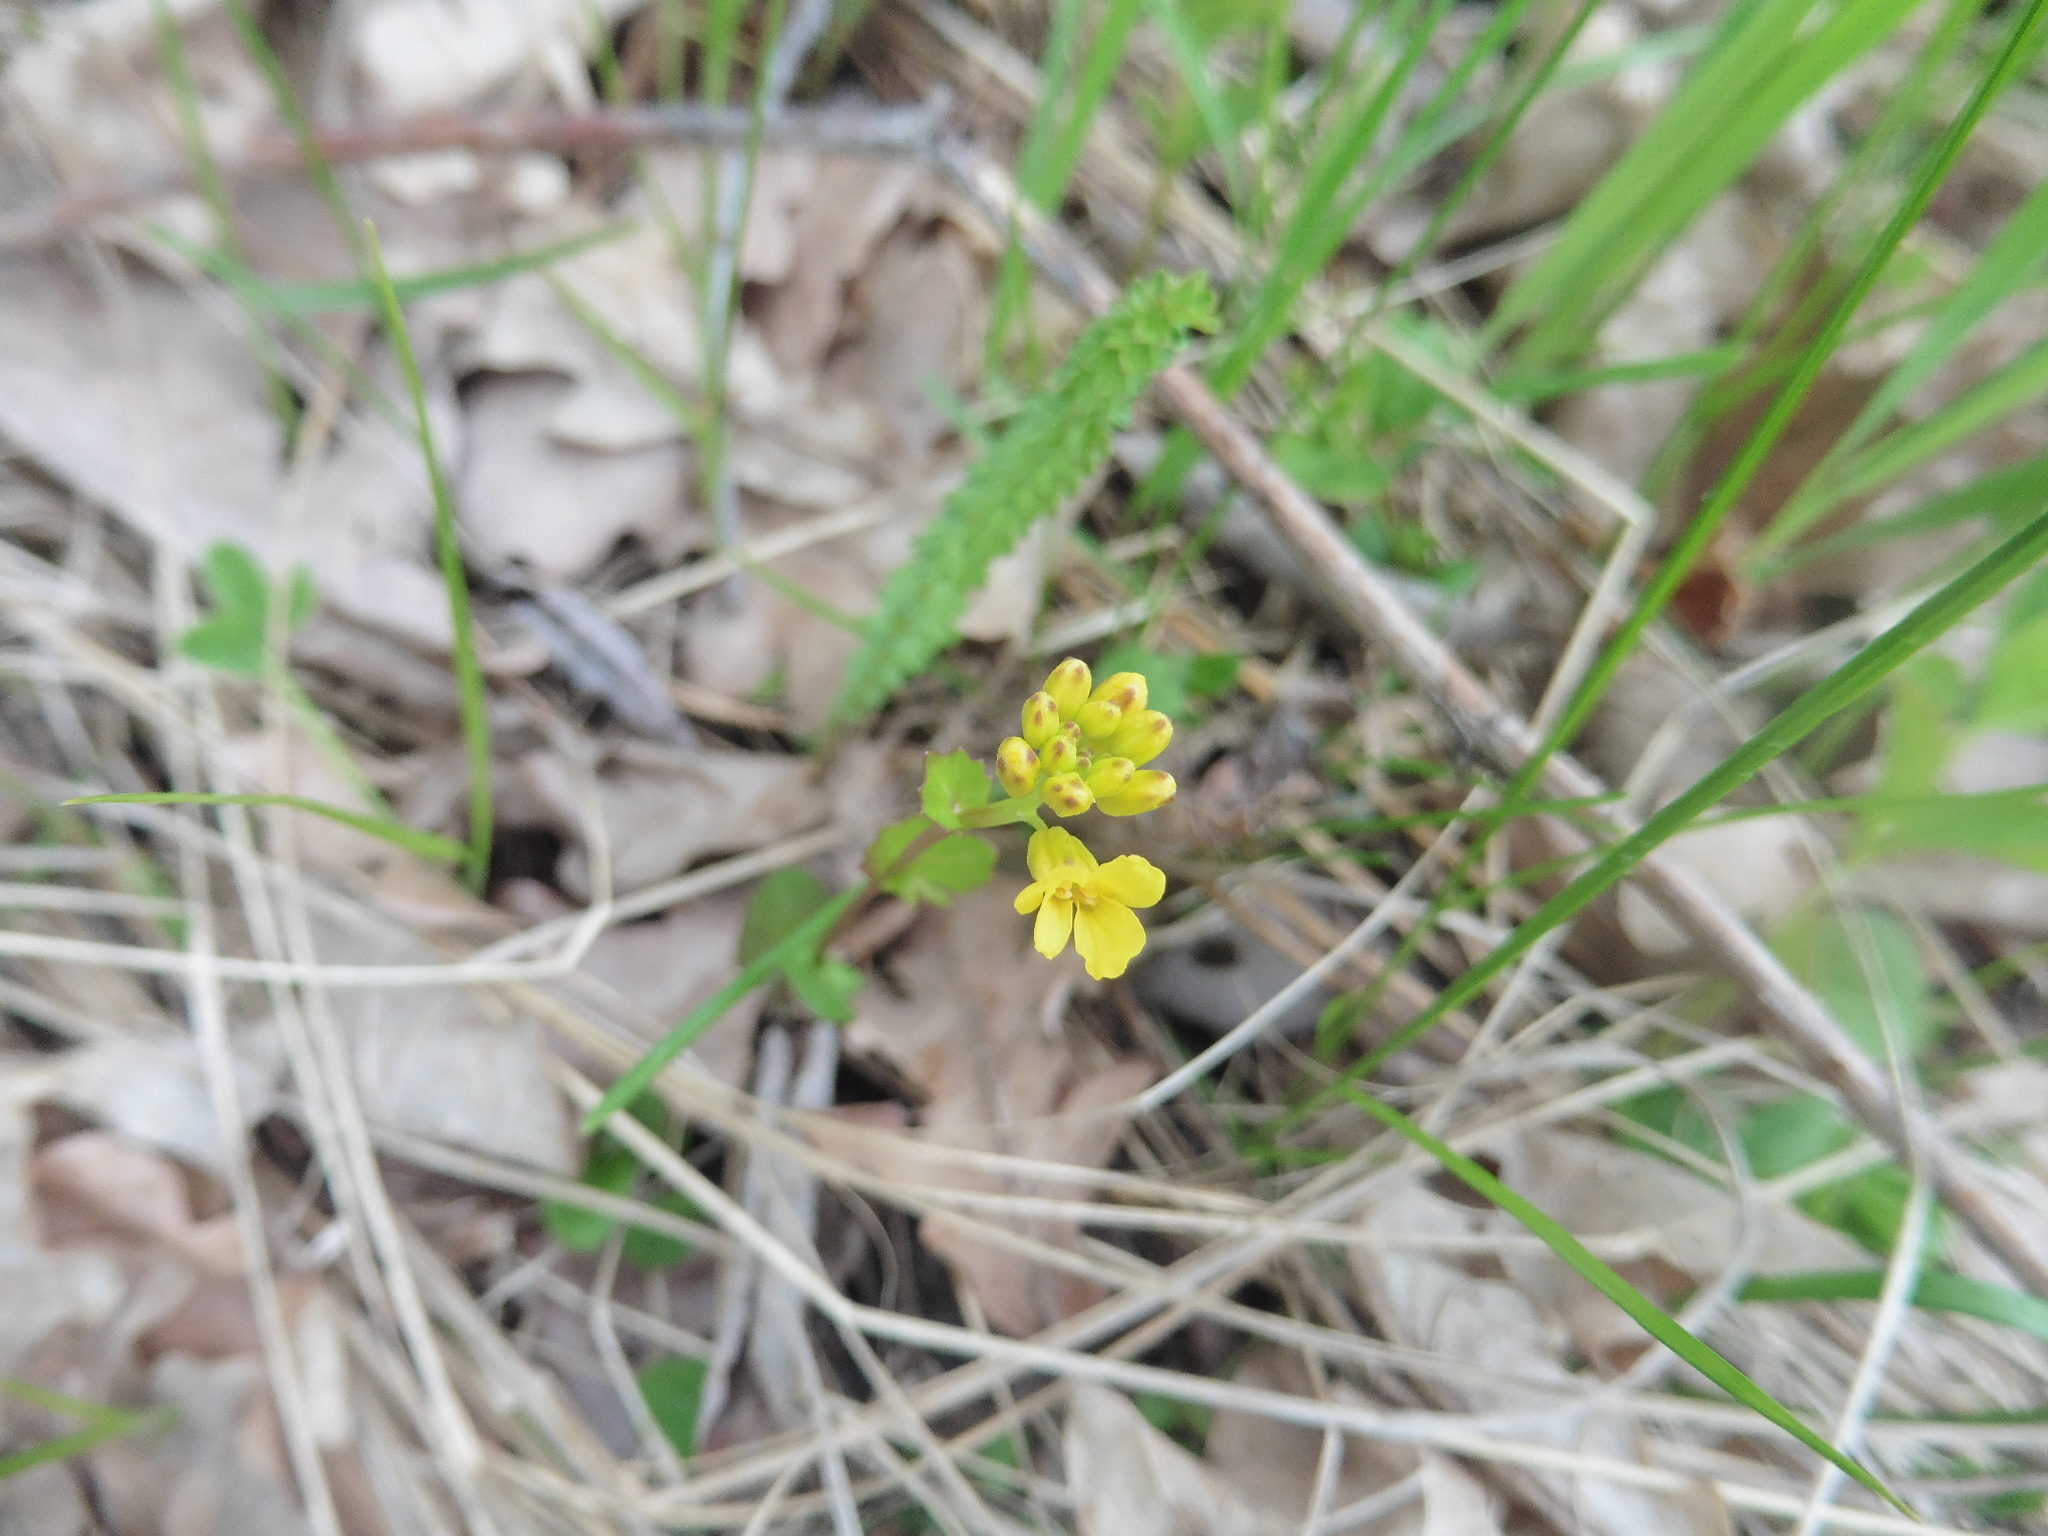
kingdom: Plantae
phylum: Tracheophyta
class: Magnoliopsida
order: Brassicales
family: Brassicaceae
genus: Barbarea
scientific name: Barbarea vulgaris
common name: Cressy-greens
